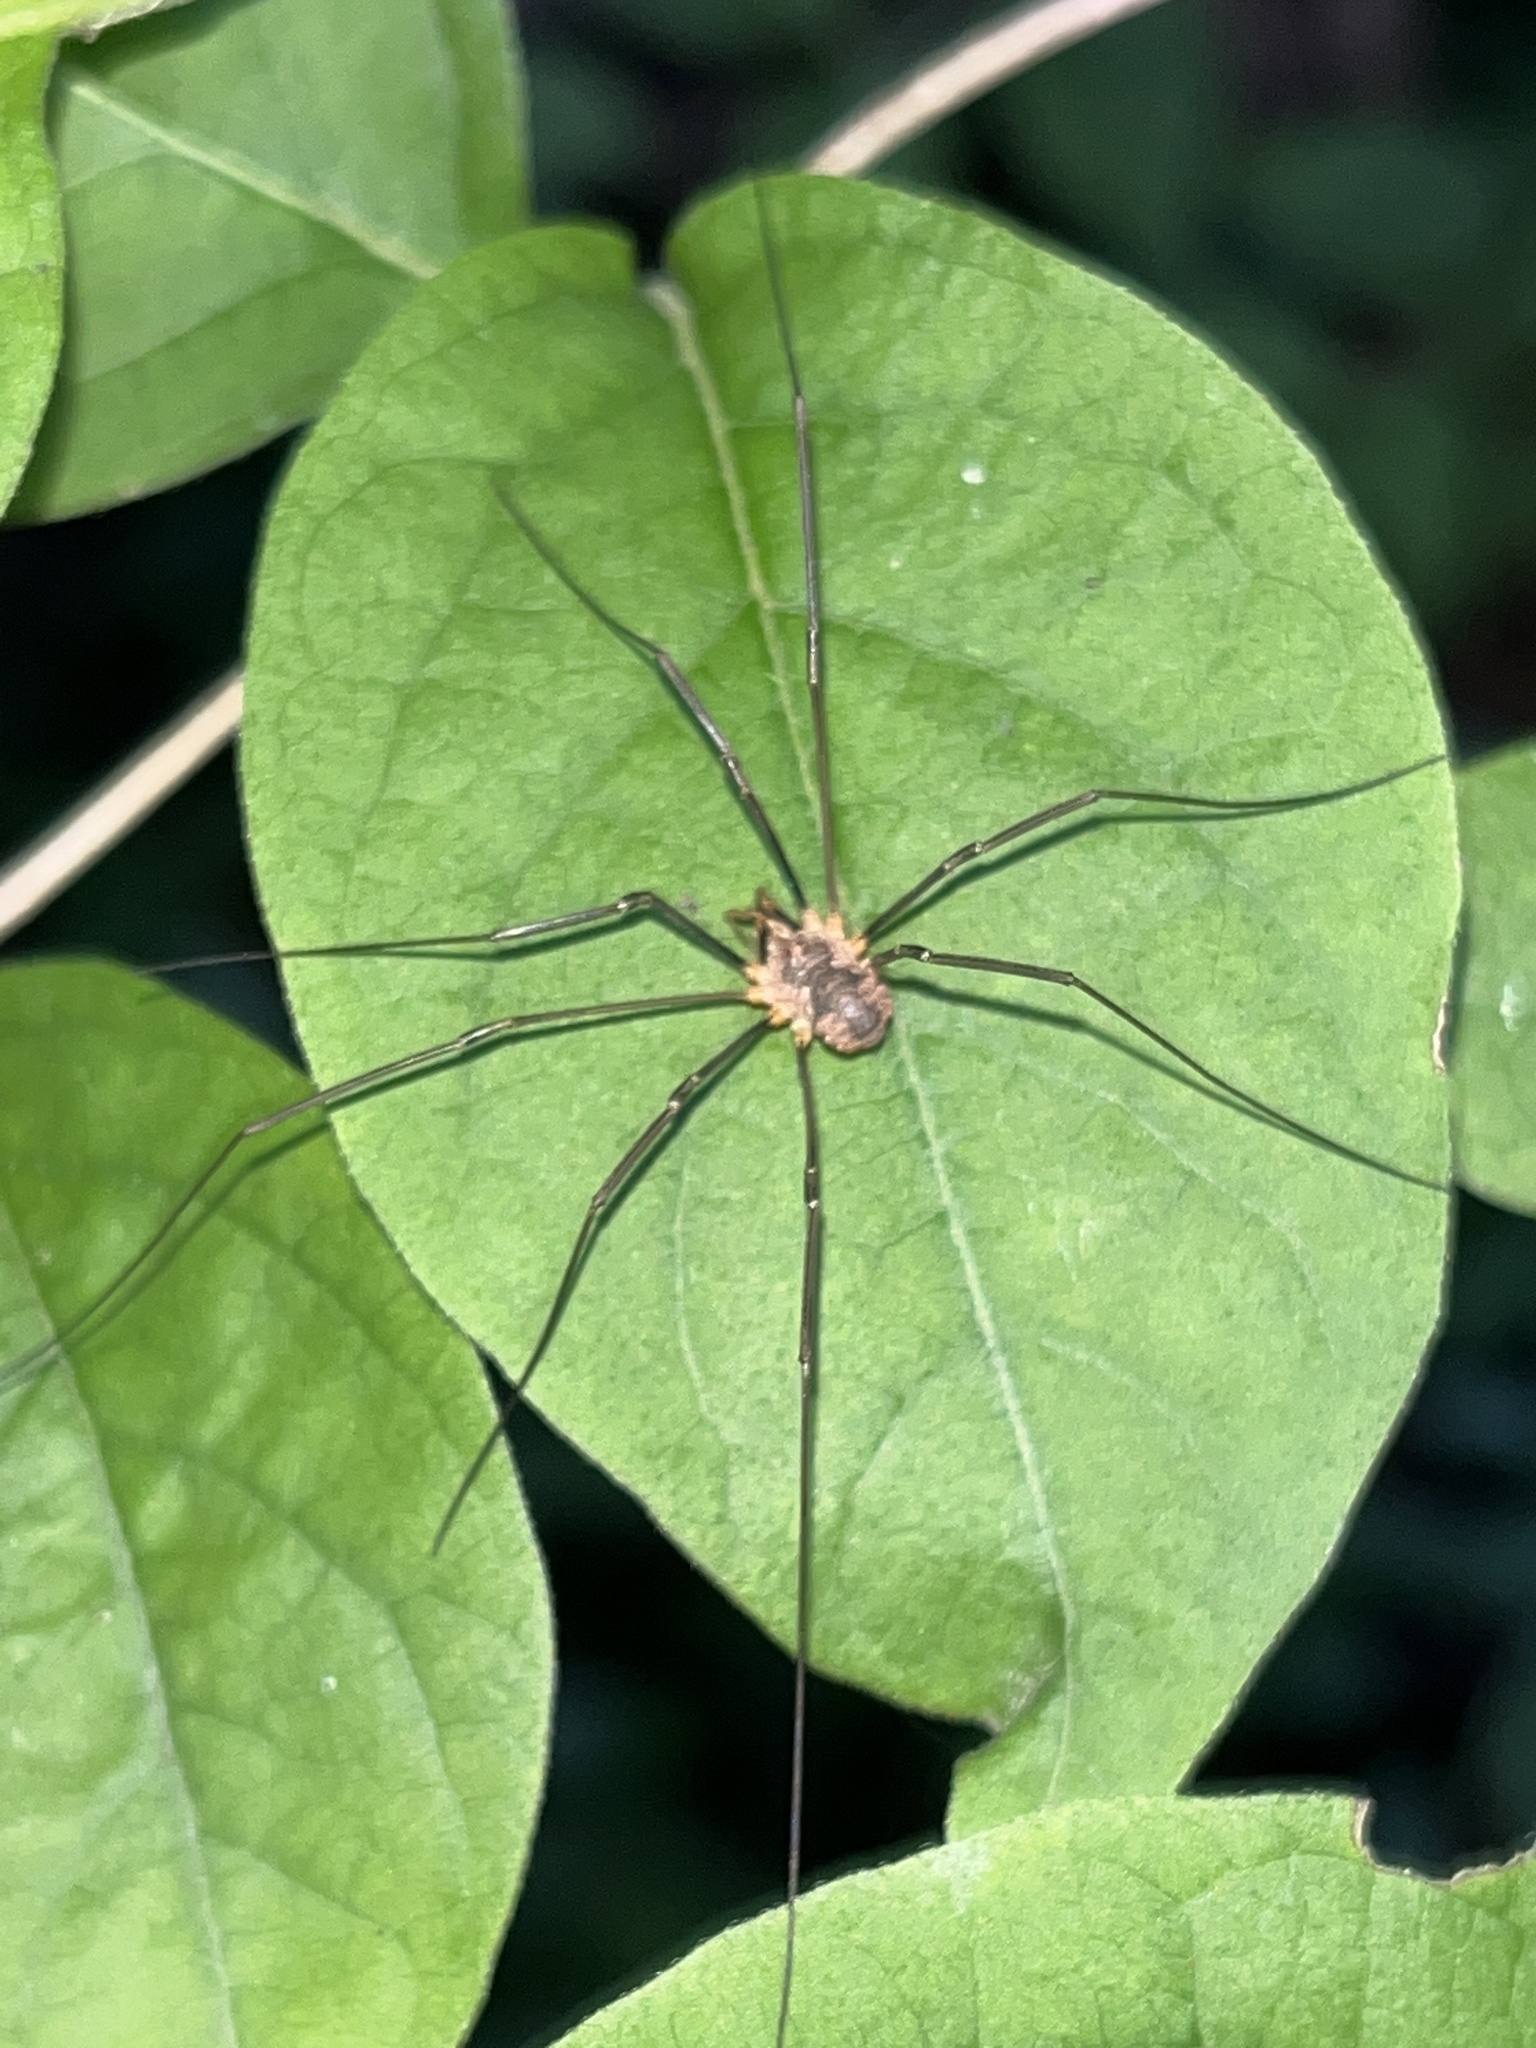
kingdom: Animalia
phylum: Arthropoda
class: Arachnida
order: Opiliones
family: Phalangiidae
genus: Phalangium
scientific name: Phalangium opilio
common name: Daddy longleg
